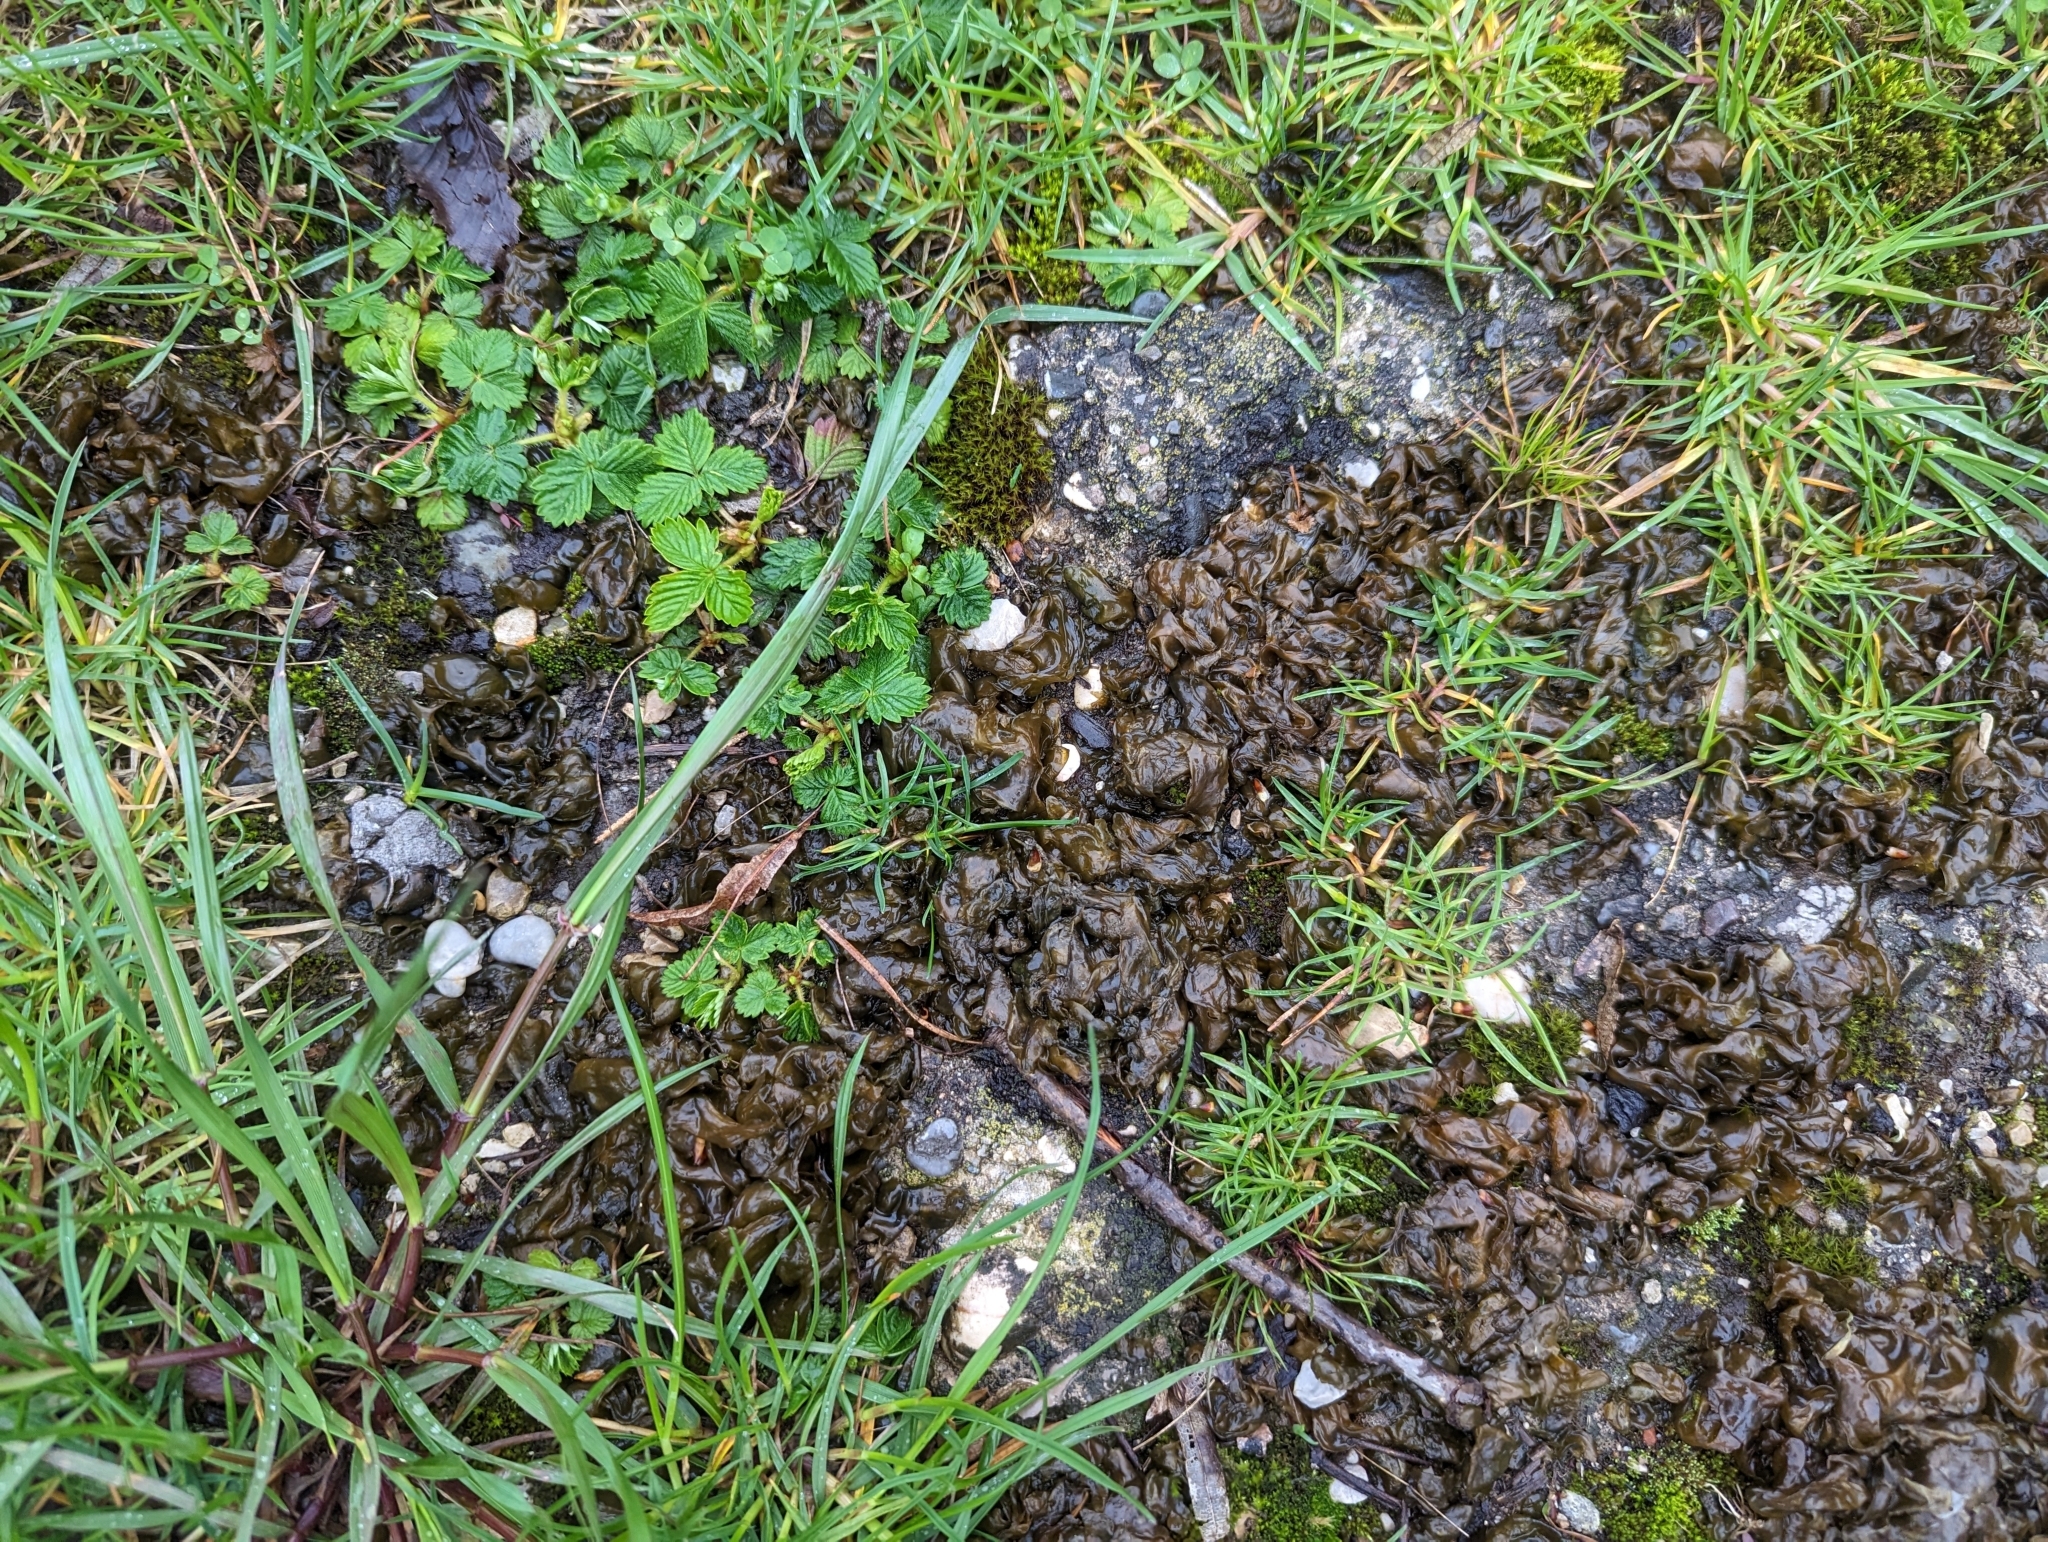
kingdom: Bacteria
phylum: Cyanobacteria
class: Cyanobacteriia
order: Cyanobacteriales
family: Nostocaceae
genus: Nostoc
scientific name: Nostoc commune
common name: Star jelly
